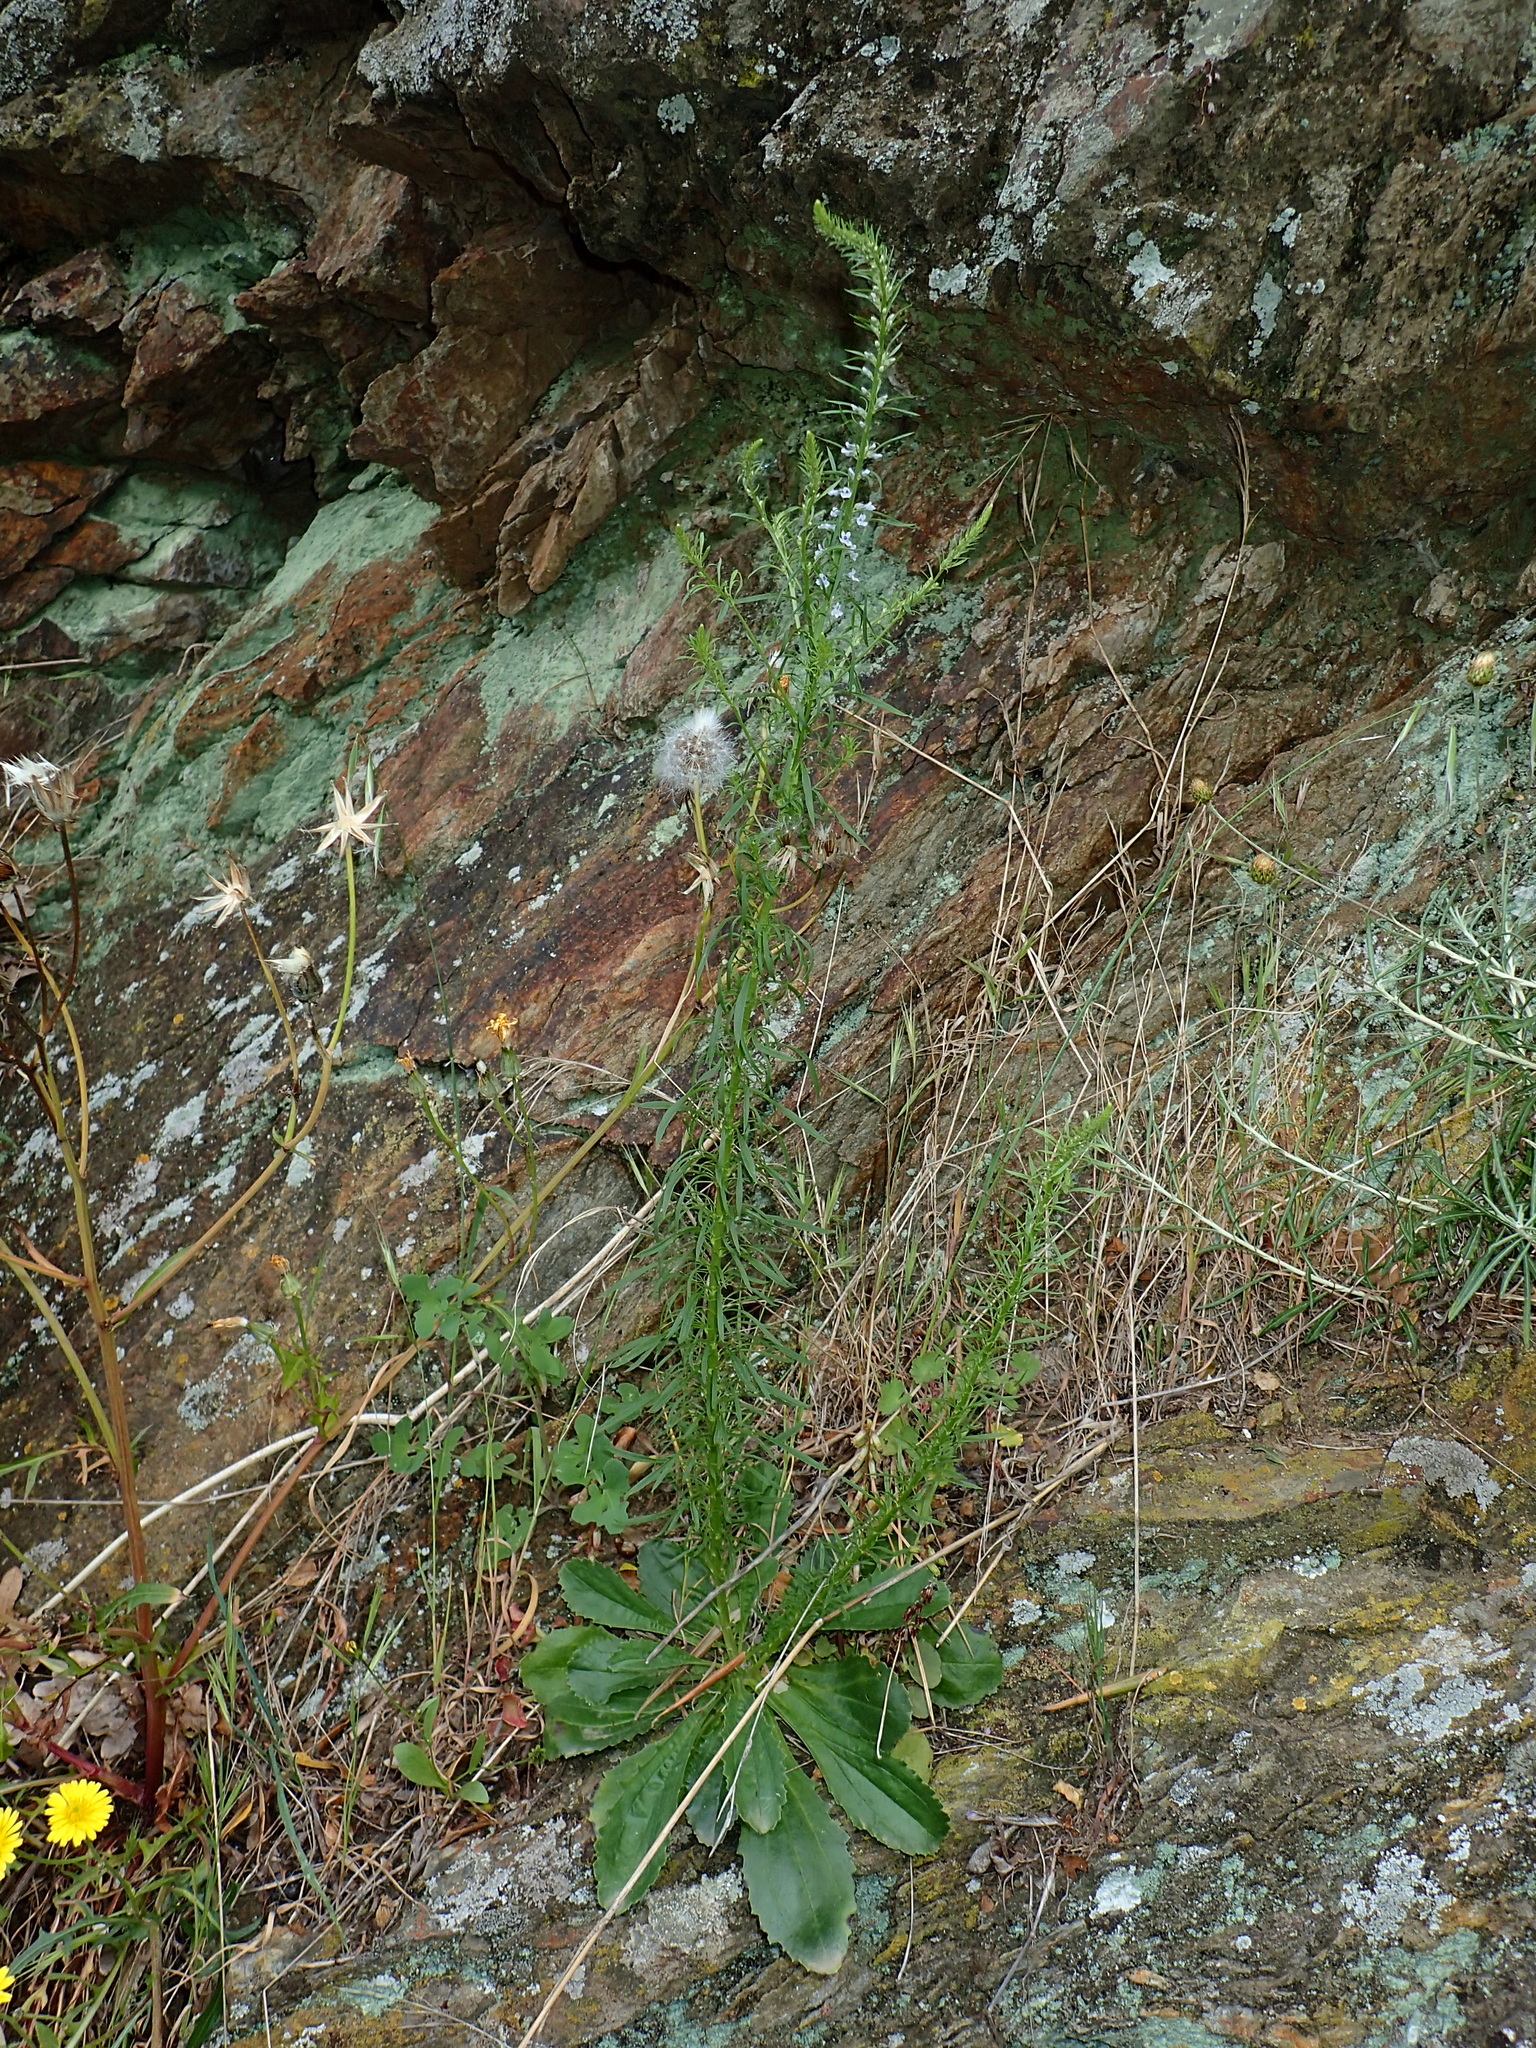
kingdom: Plantae
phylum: Tracheophyta
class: Magnoliopsida
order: Lamiales
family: Plantaginaceae
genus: Anarrhinum
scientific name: Anarrhinum bellidifolium
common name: Daisy-leaved toadflax
